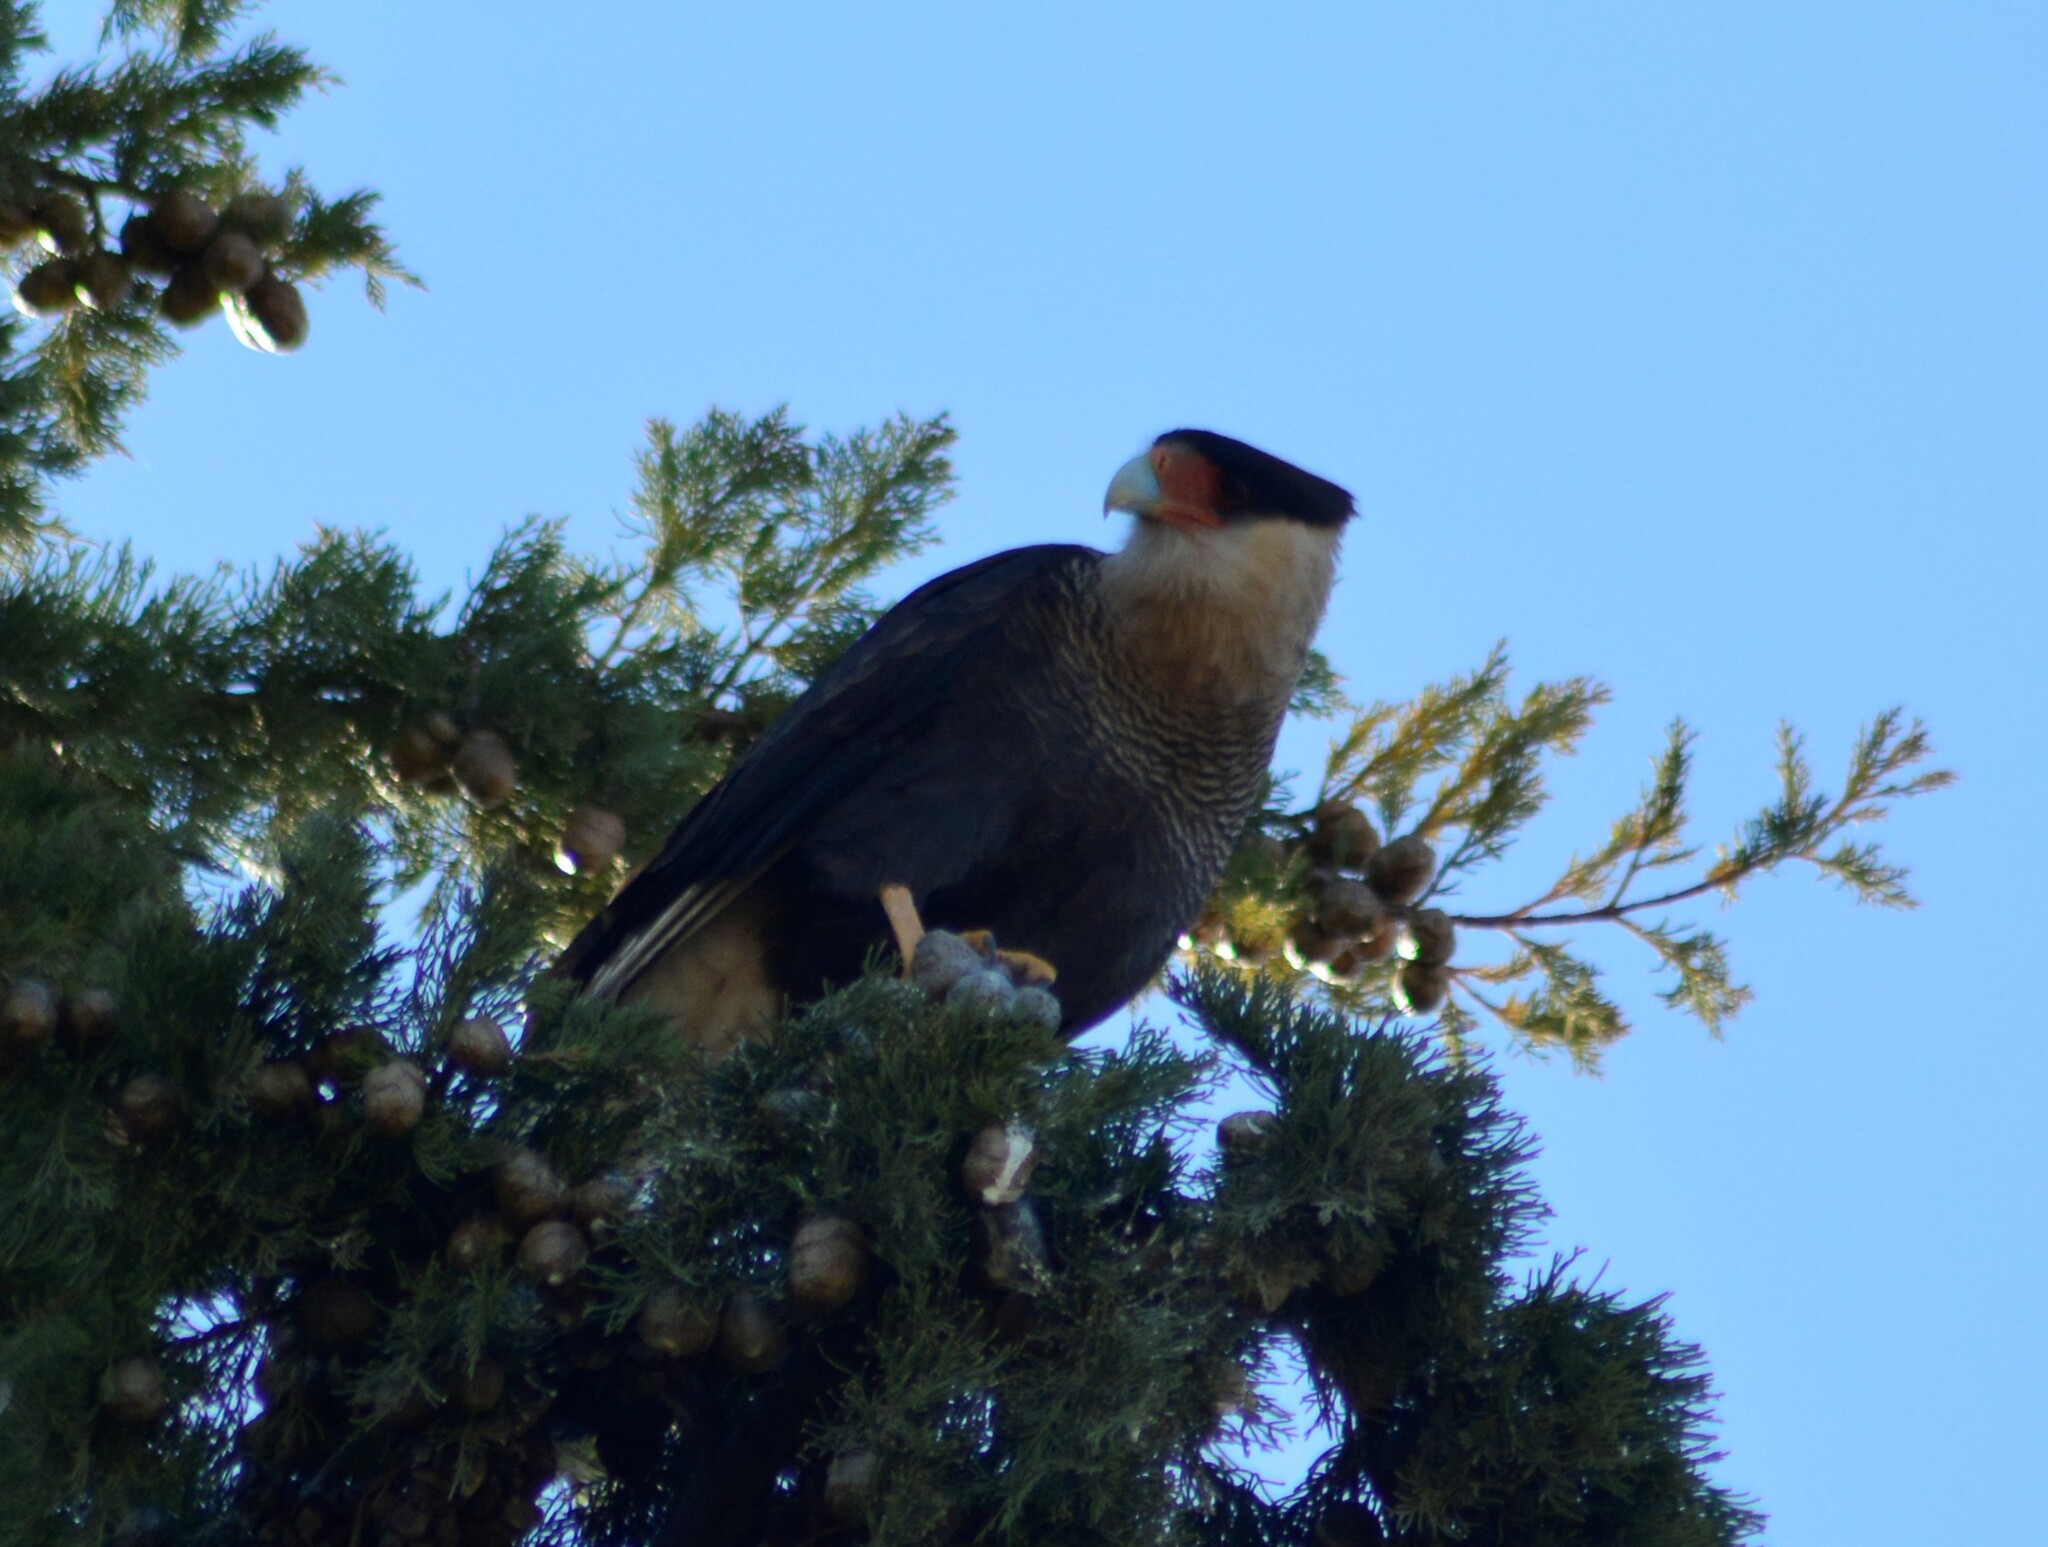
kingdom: Animalia
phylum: Chordata
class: Aves
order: Falconiformes
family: Falconidae
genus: Caracara
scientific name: Caracara plancus
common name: Southern caracara
